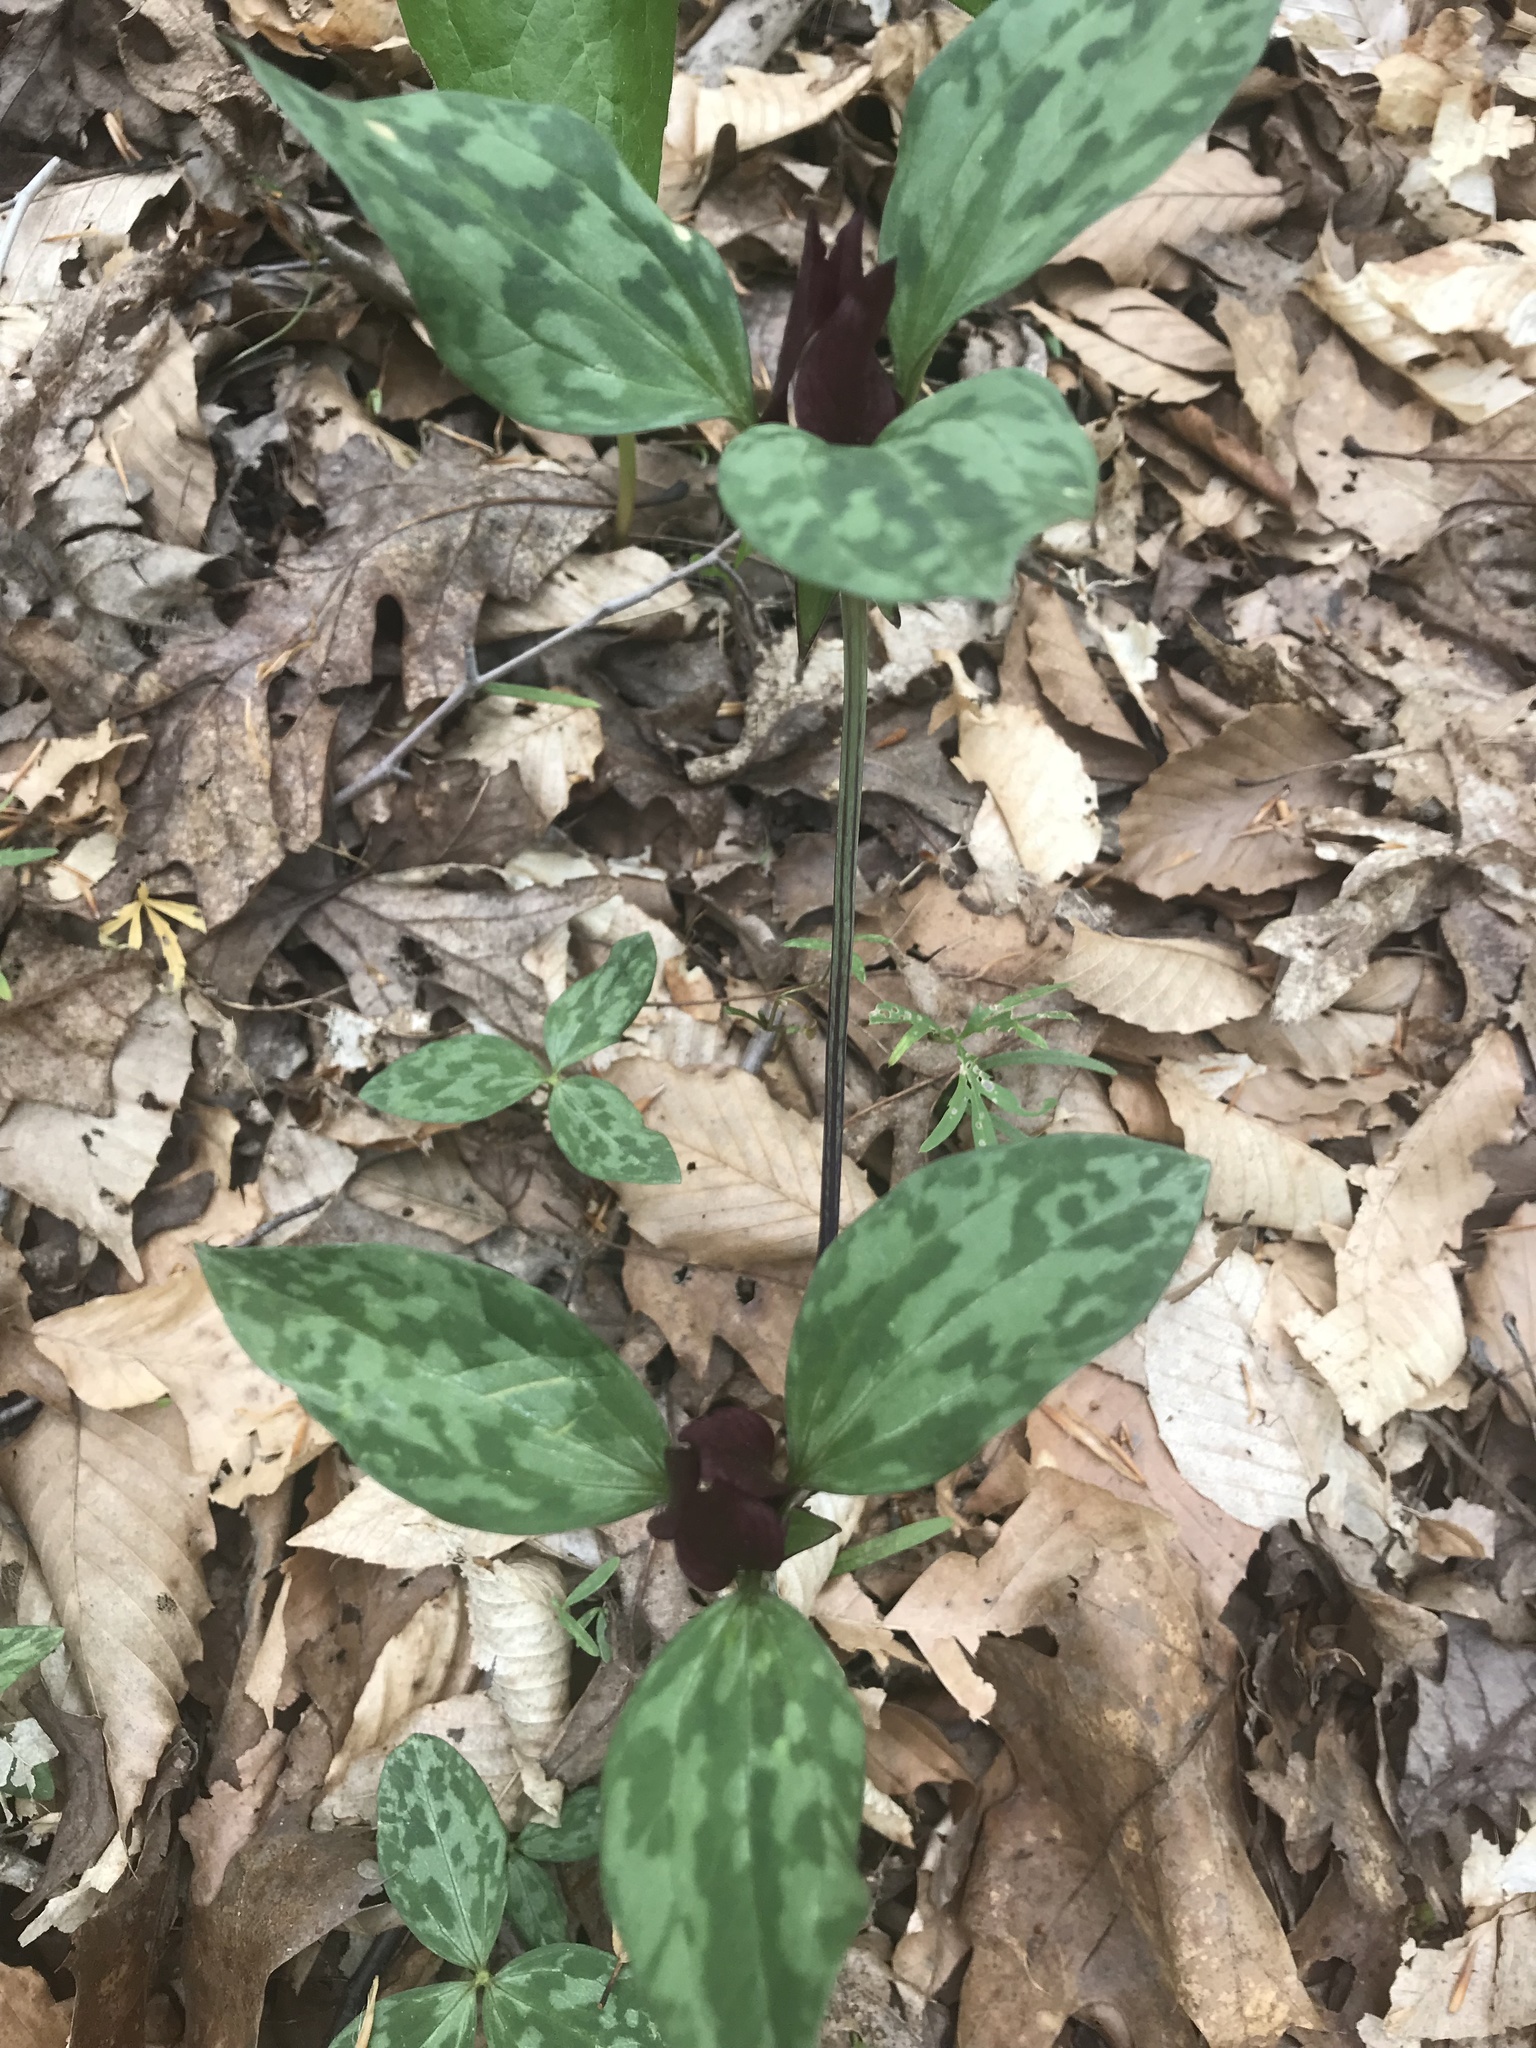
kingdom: Plantae
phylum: Tracheophyta
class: Liliopsida
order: Liliales
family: Melanthiaceae
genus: Trillium
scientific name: Trillium recurvatum
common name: Bloody butcher
